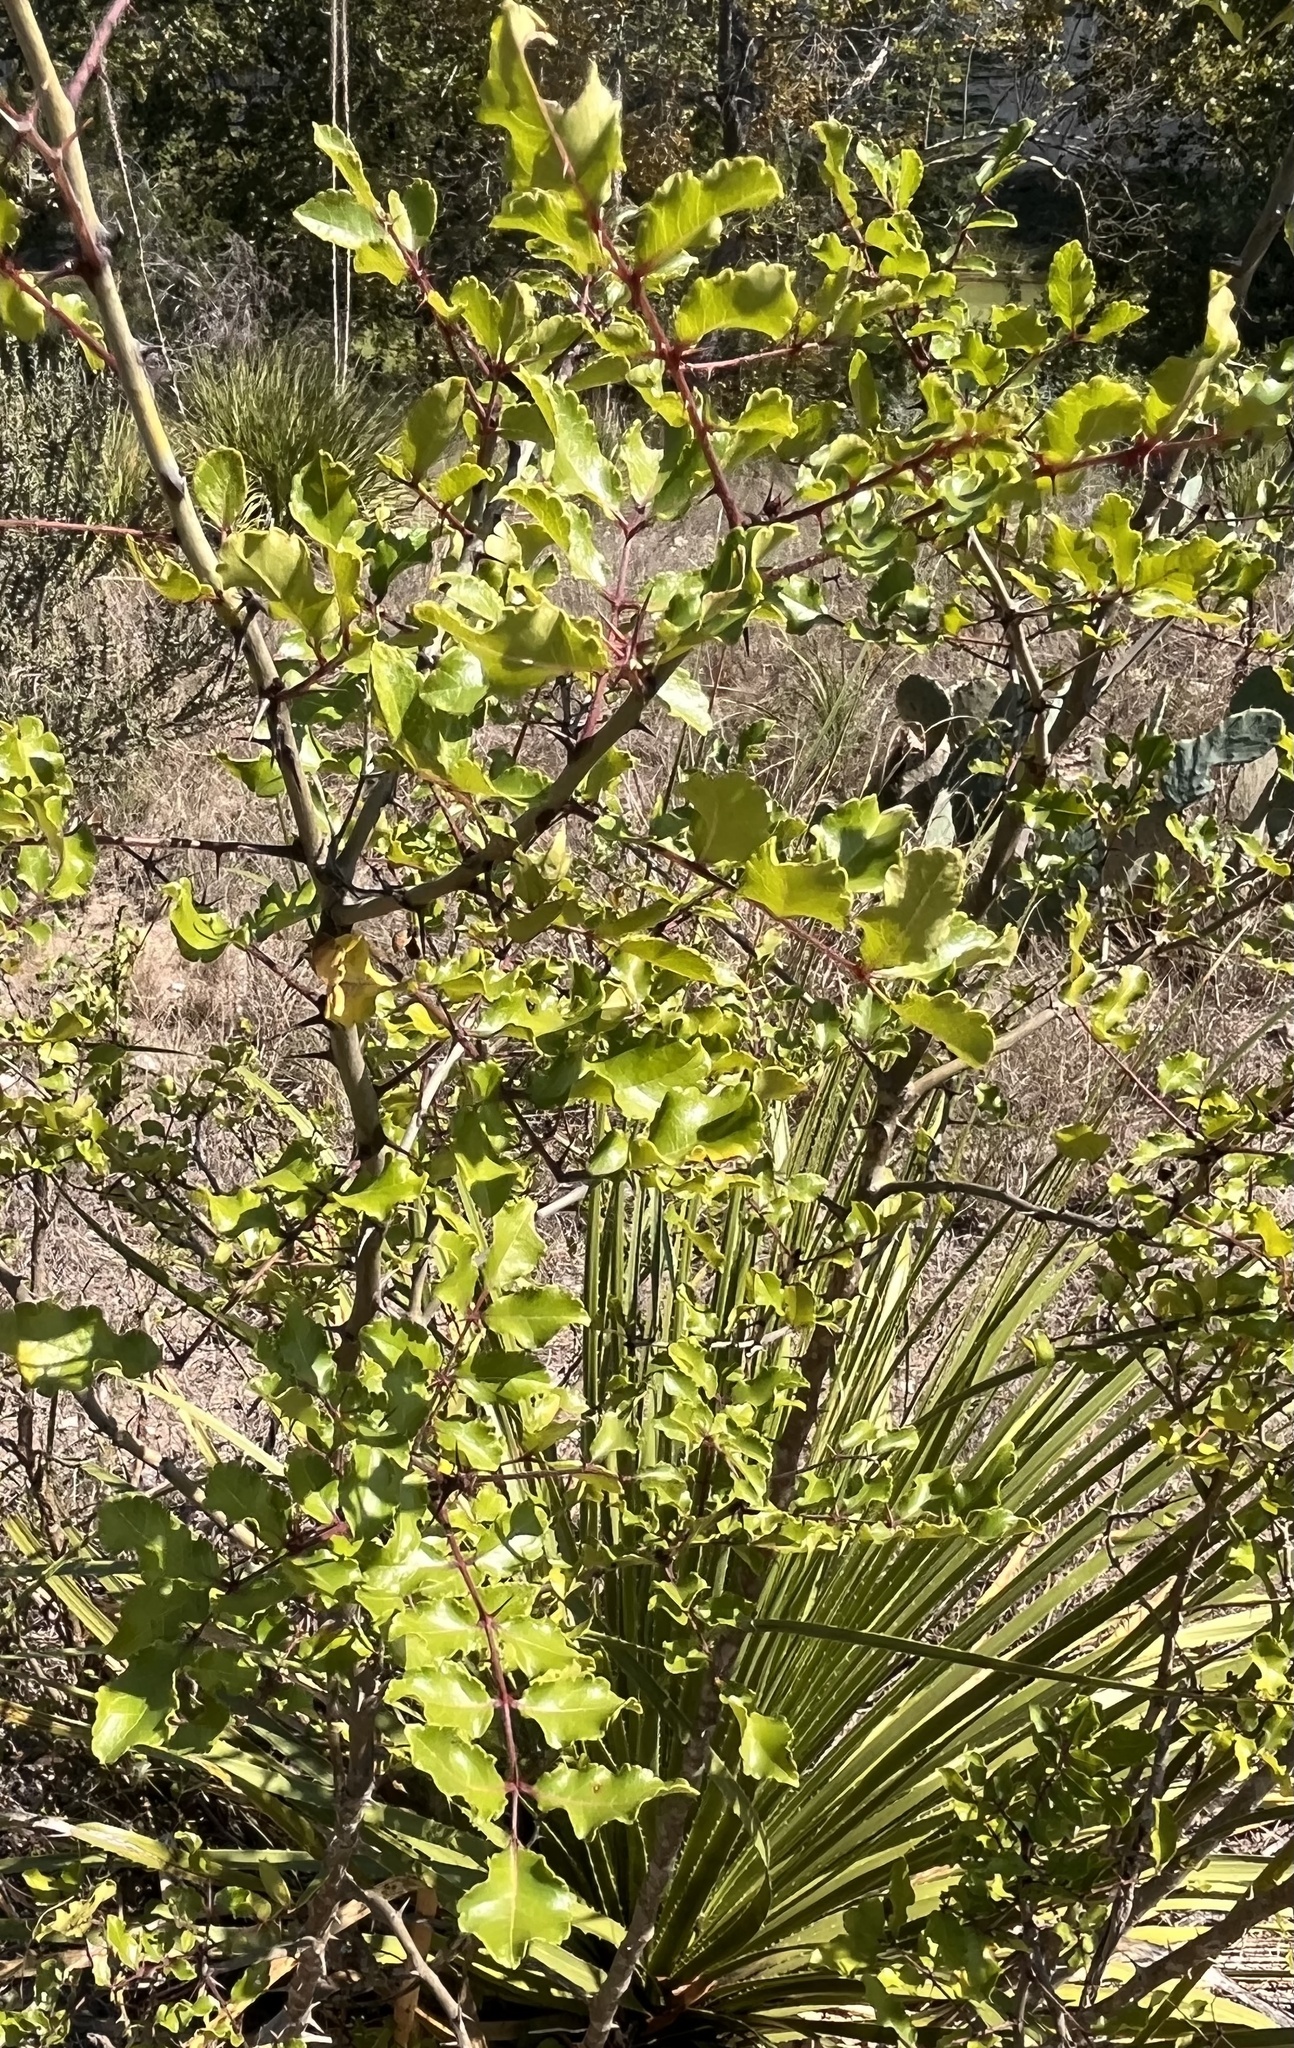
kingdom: Plantae
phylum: Tracheophyta
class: Magnoliopsida
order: Sapindales
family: Rutaceae
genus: Zanthoxylum
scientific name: Zanthoxylum clava-herculis
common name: Hercules'-club
